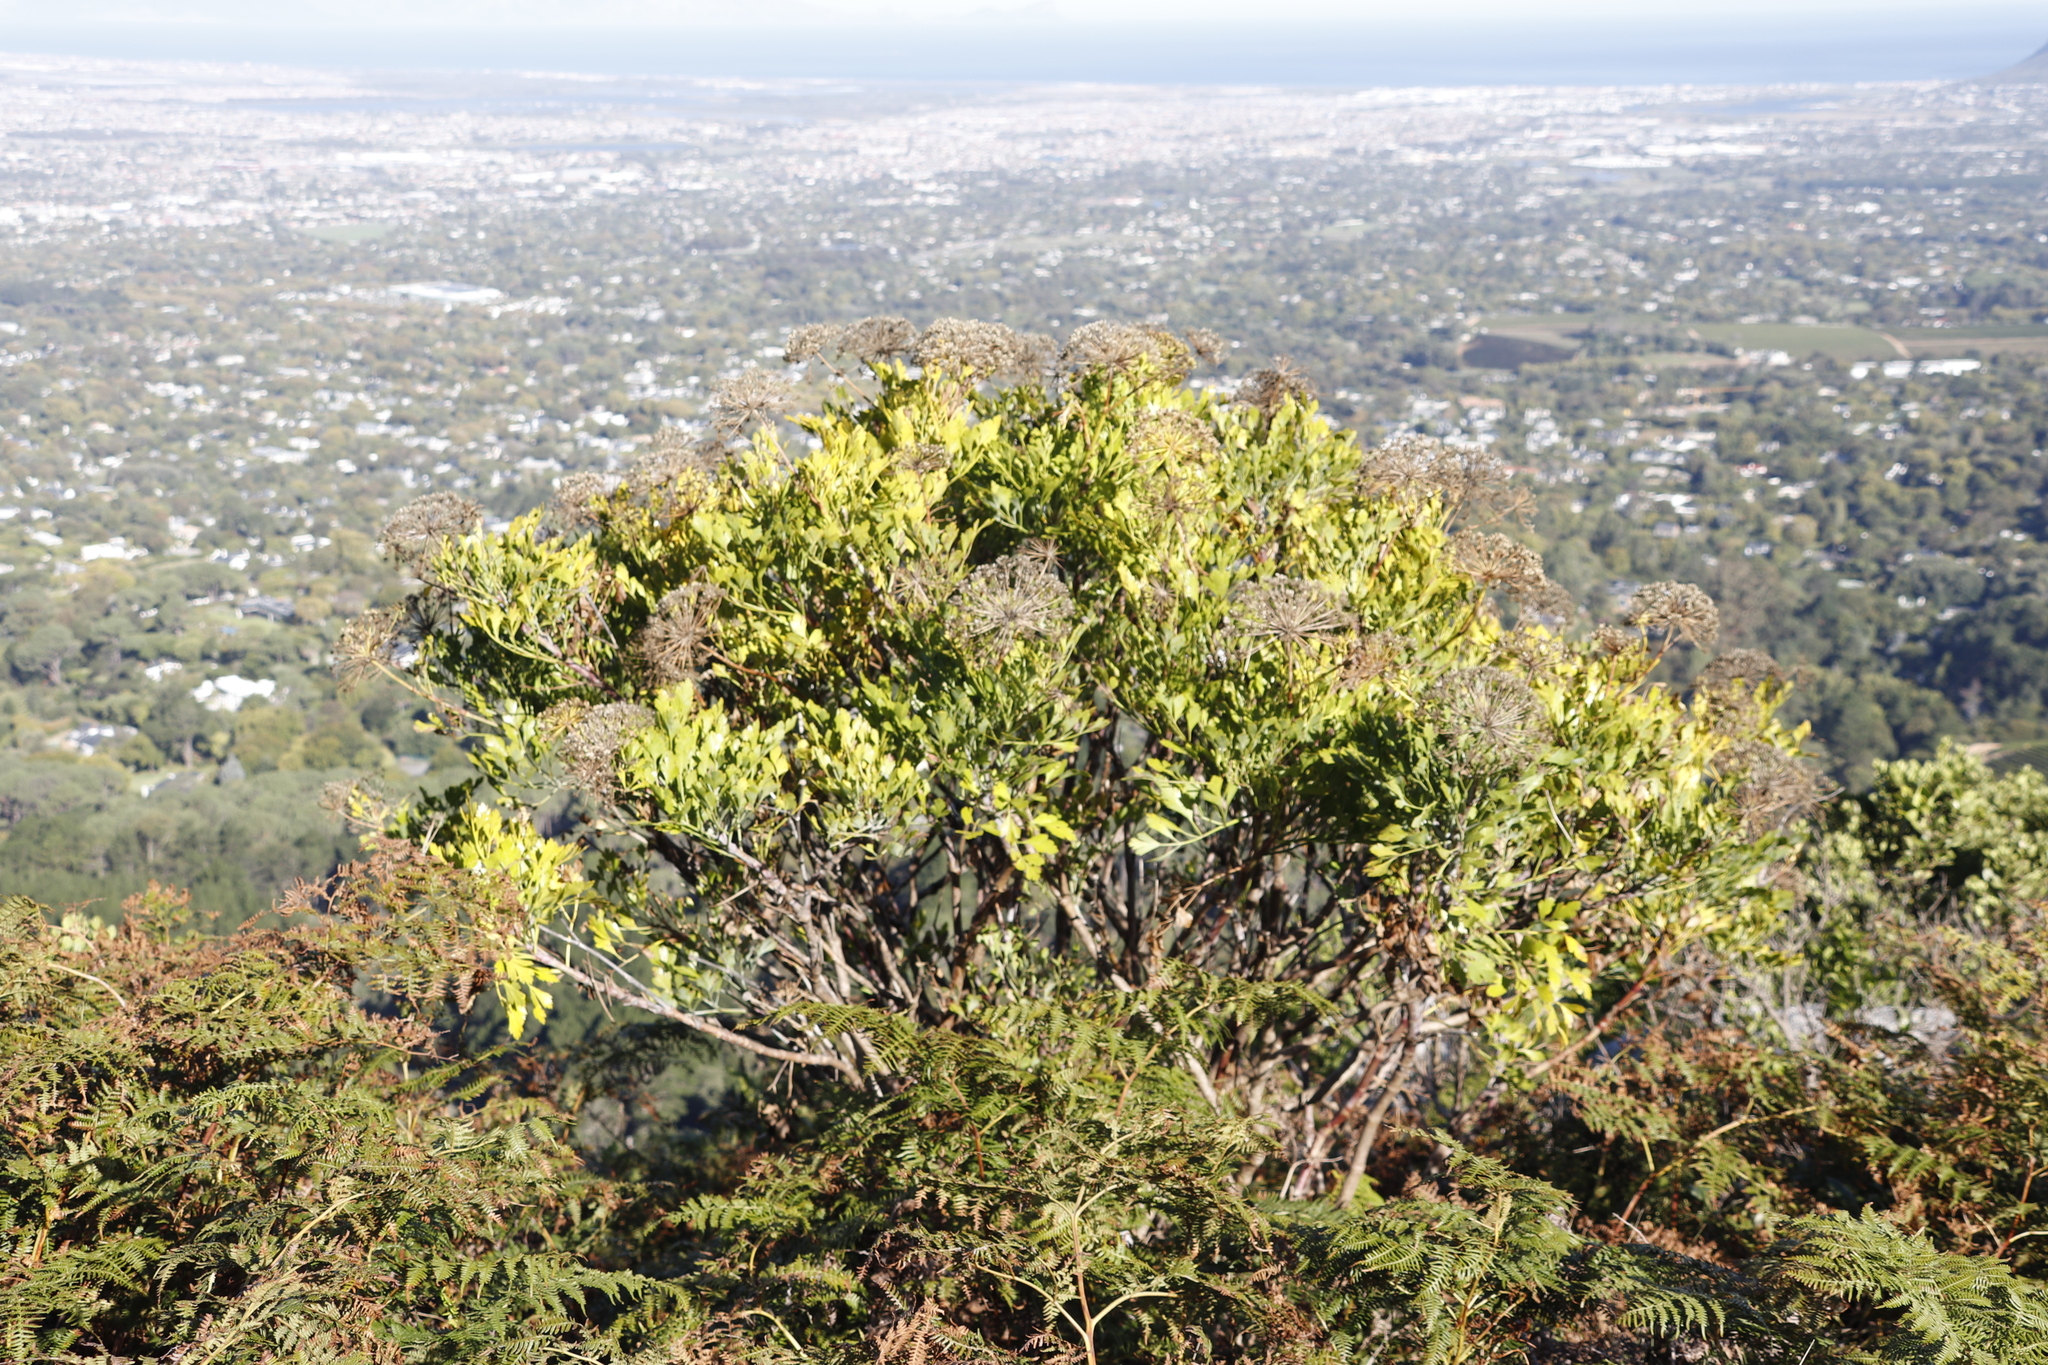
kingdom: Plantae
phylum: Tracheophyta
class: Magnoliopsida
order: Apiales
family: Apiaceae
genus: Notobubon
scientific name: Notobubon galbanum
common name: Blisterbush
